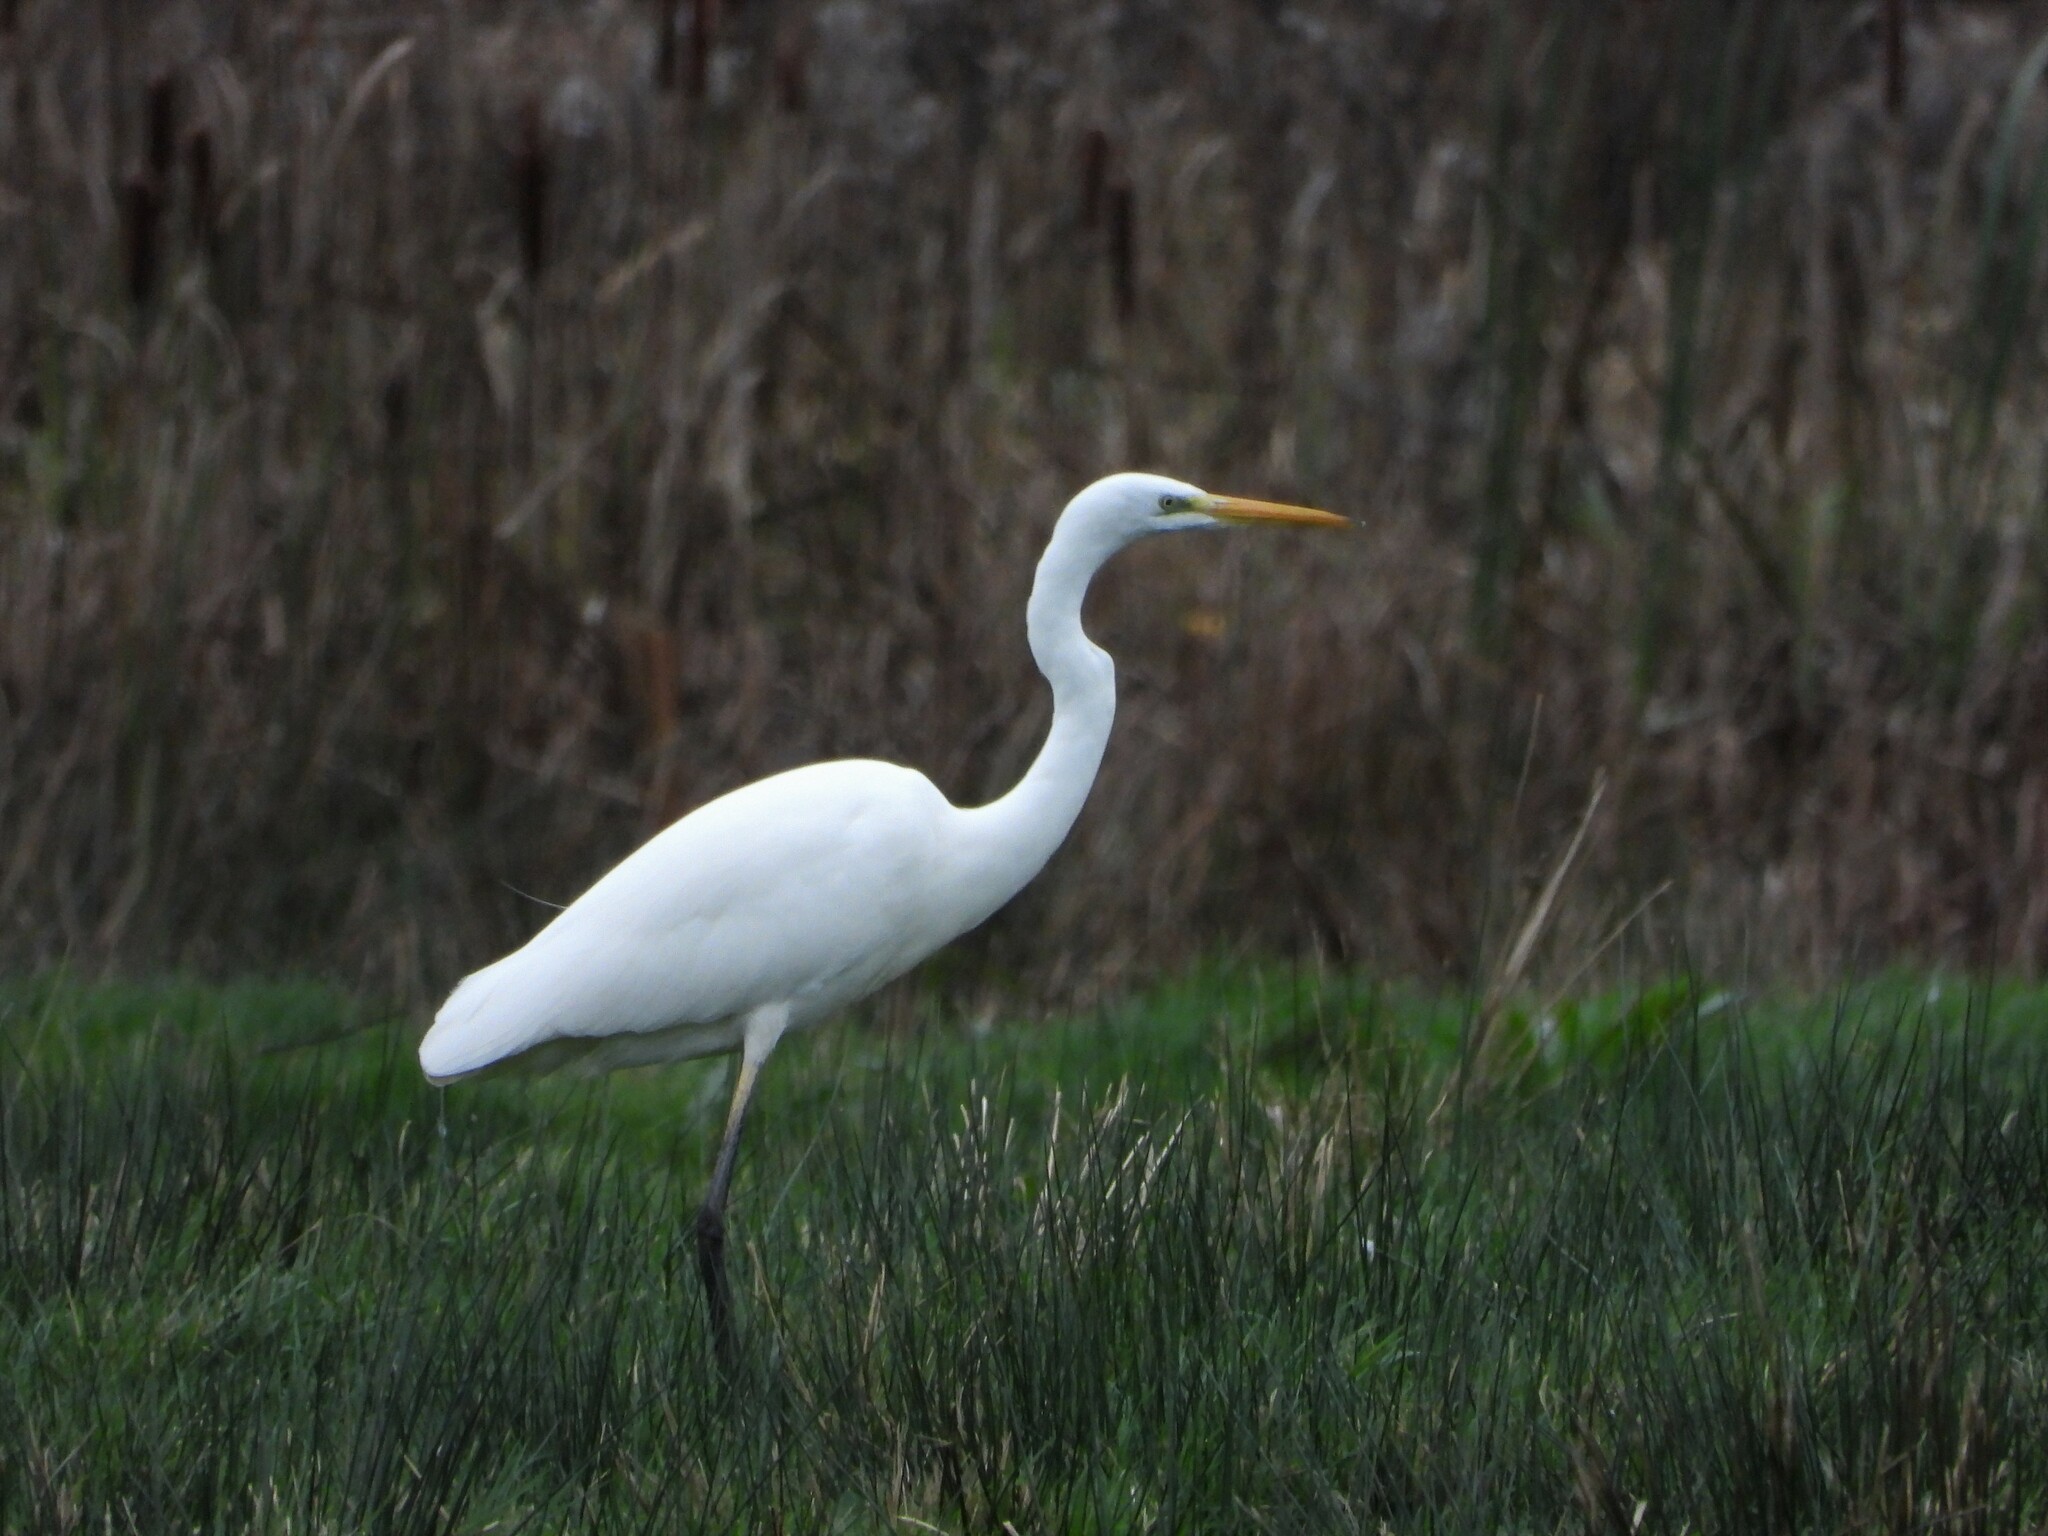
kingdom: Animalia
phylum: Chordata
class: Aves
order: Pelecaniformes
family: Ardeidae
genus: Ardea
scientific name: Ardea alba
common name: Great egret
